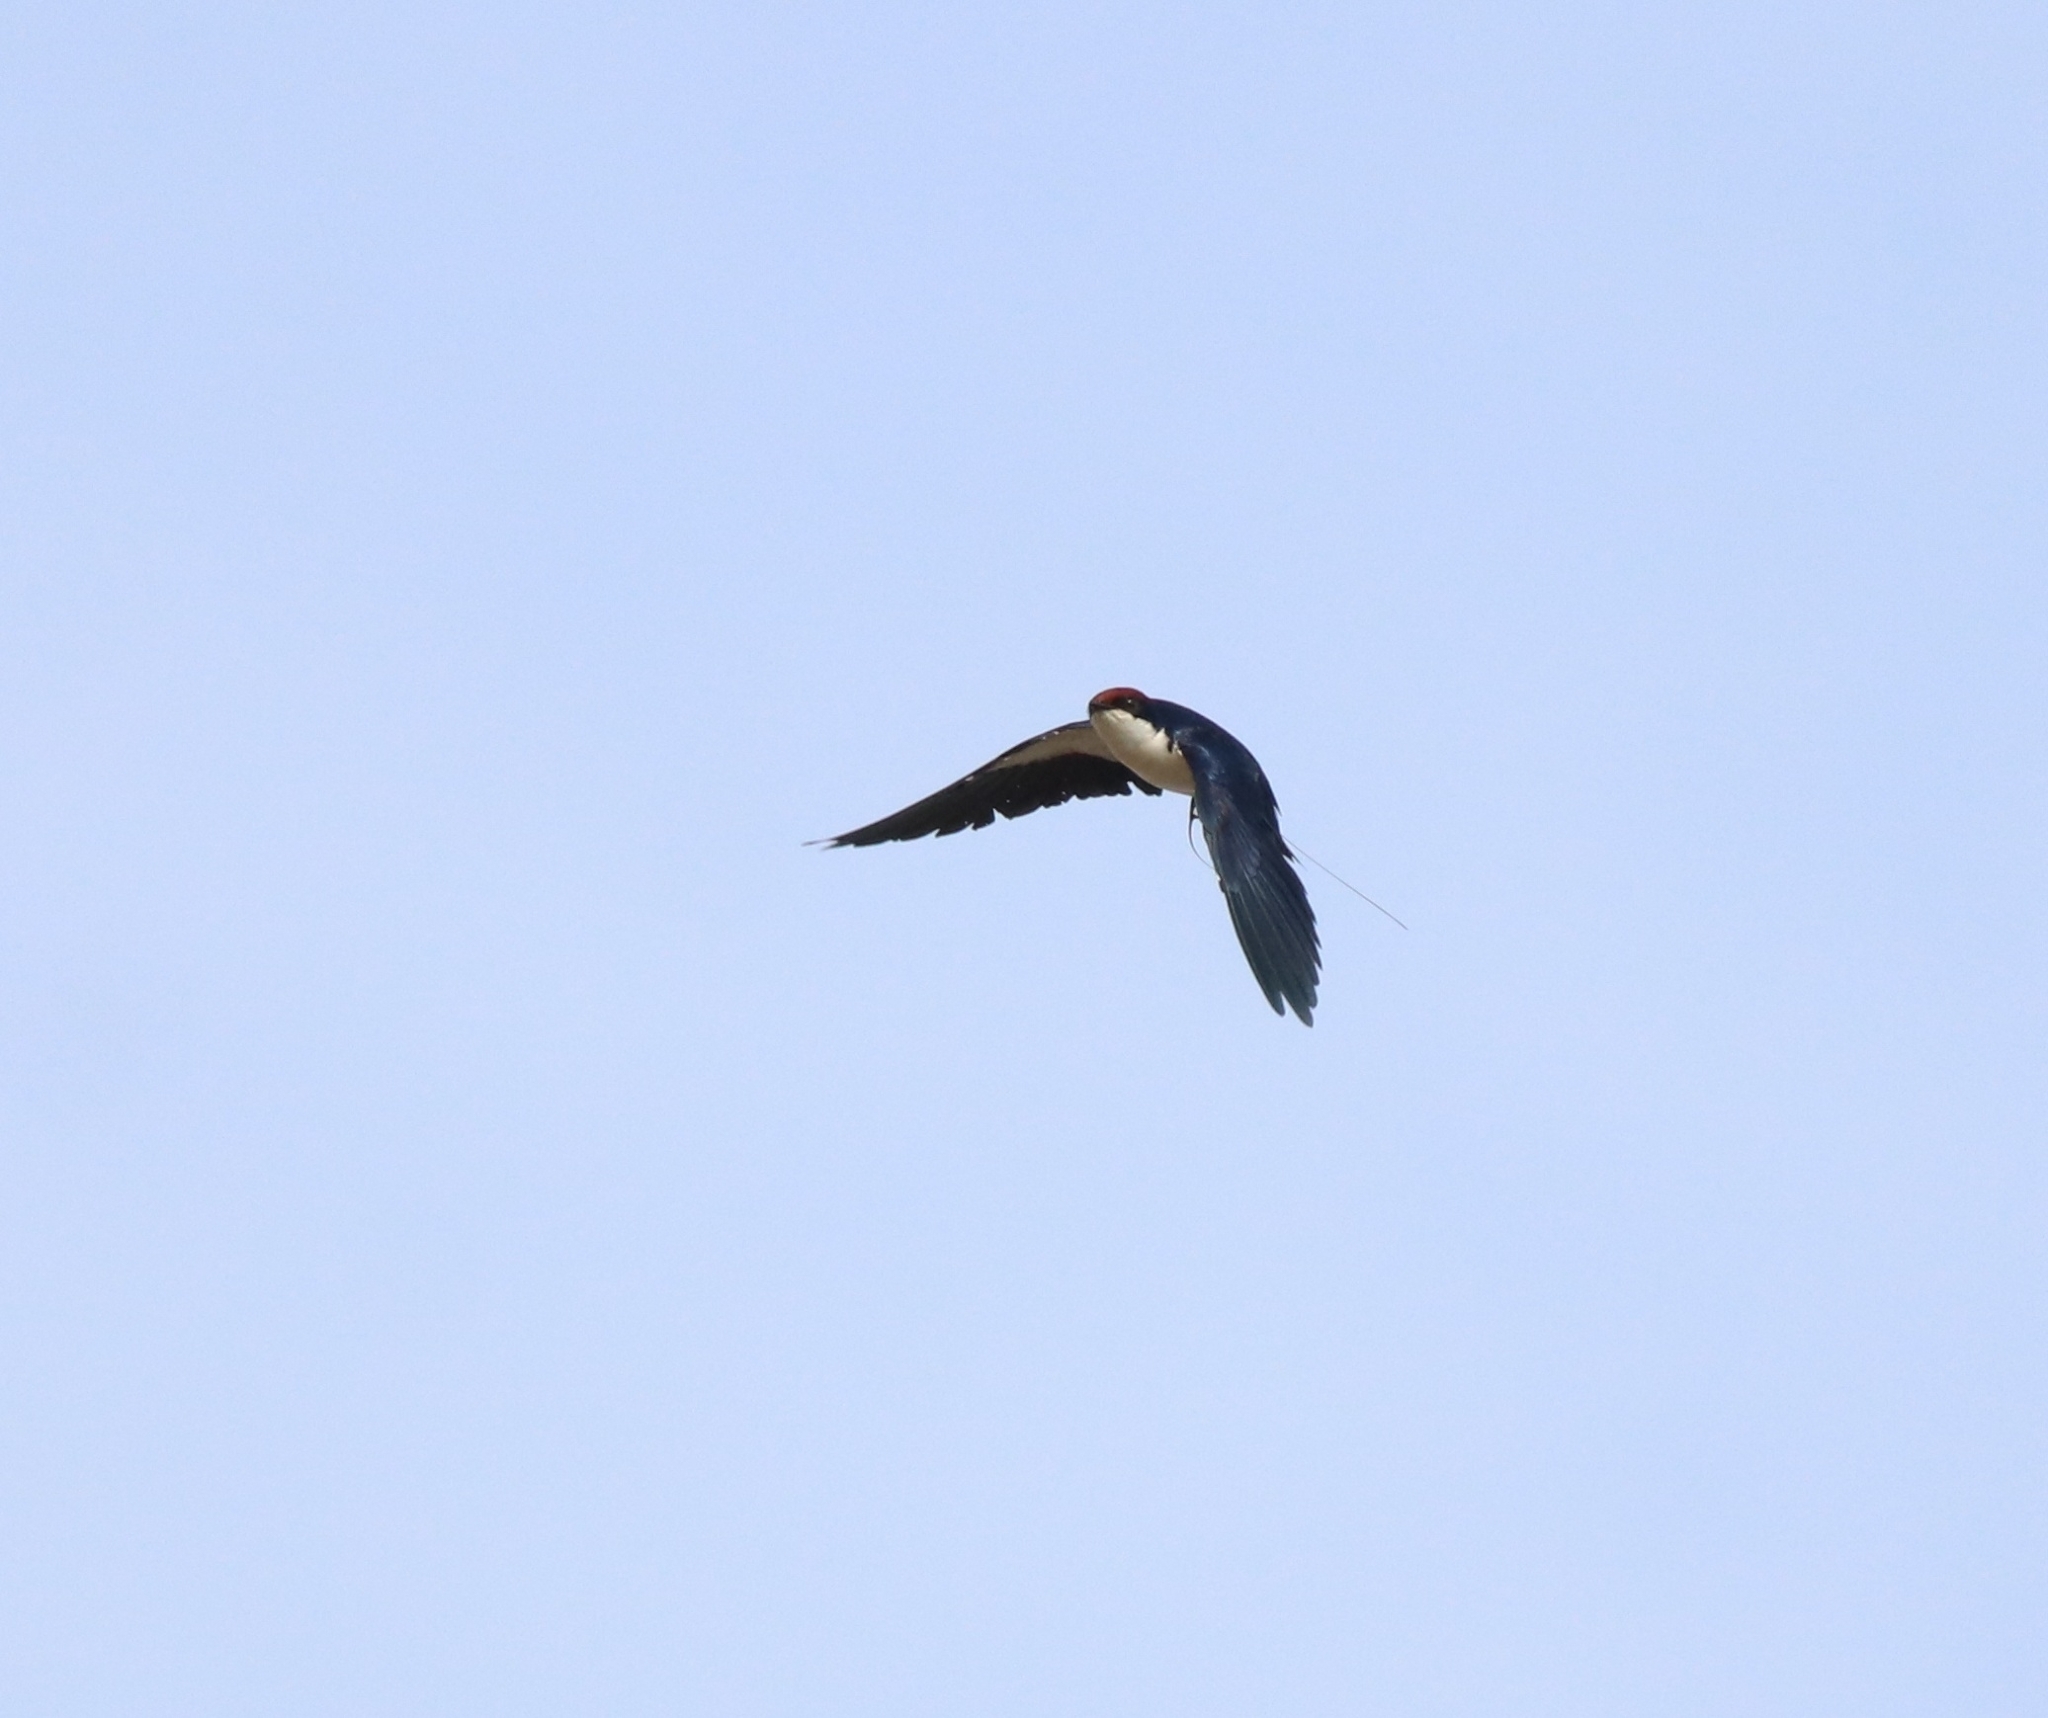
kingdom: Animalia
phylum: Chordata
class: Aves
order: Passeriformes
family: Hirundinidae
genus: Hirundo
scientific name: Hirundo smithii
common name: Wire-tailed swallow
